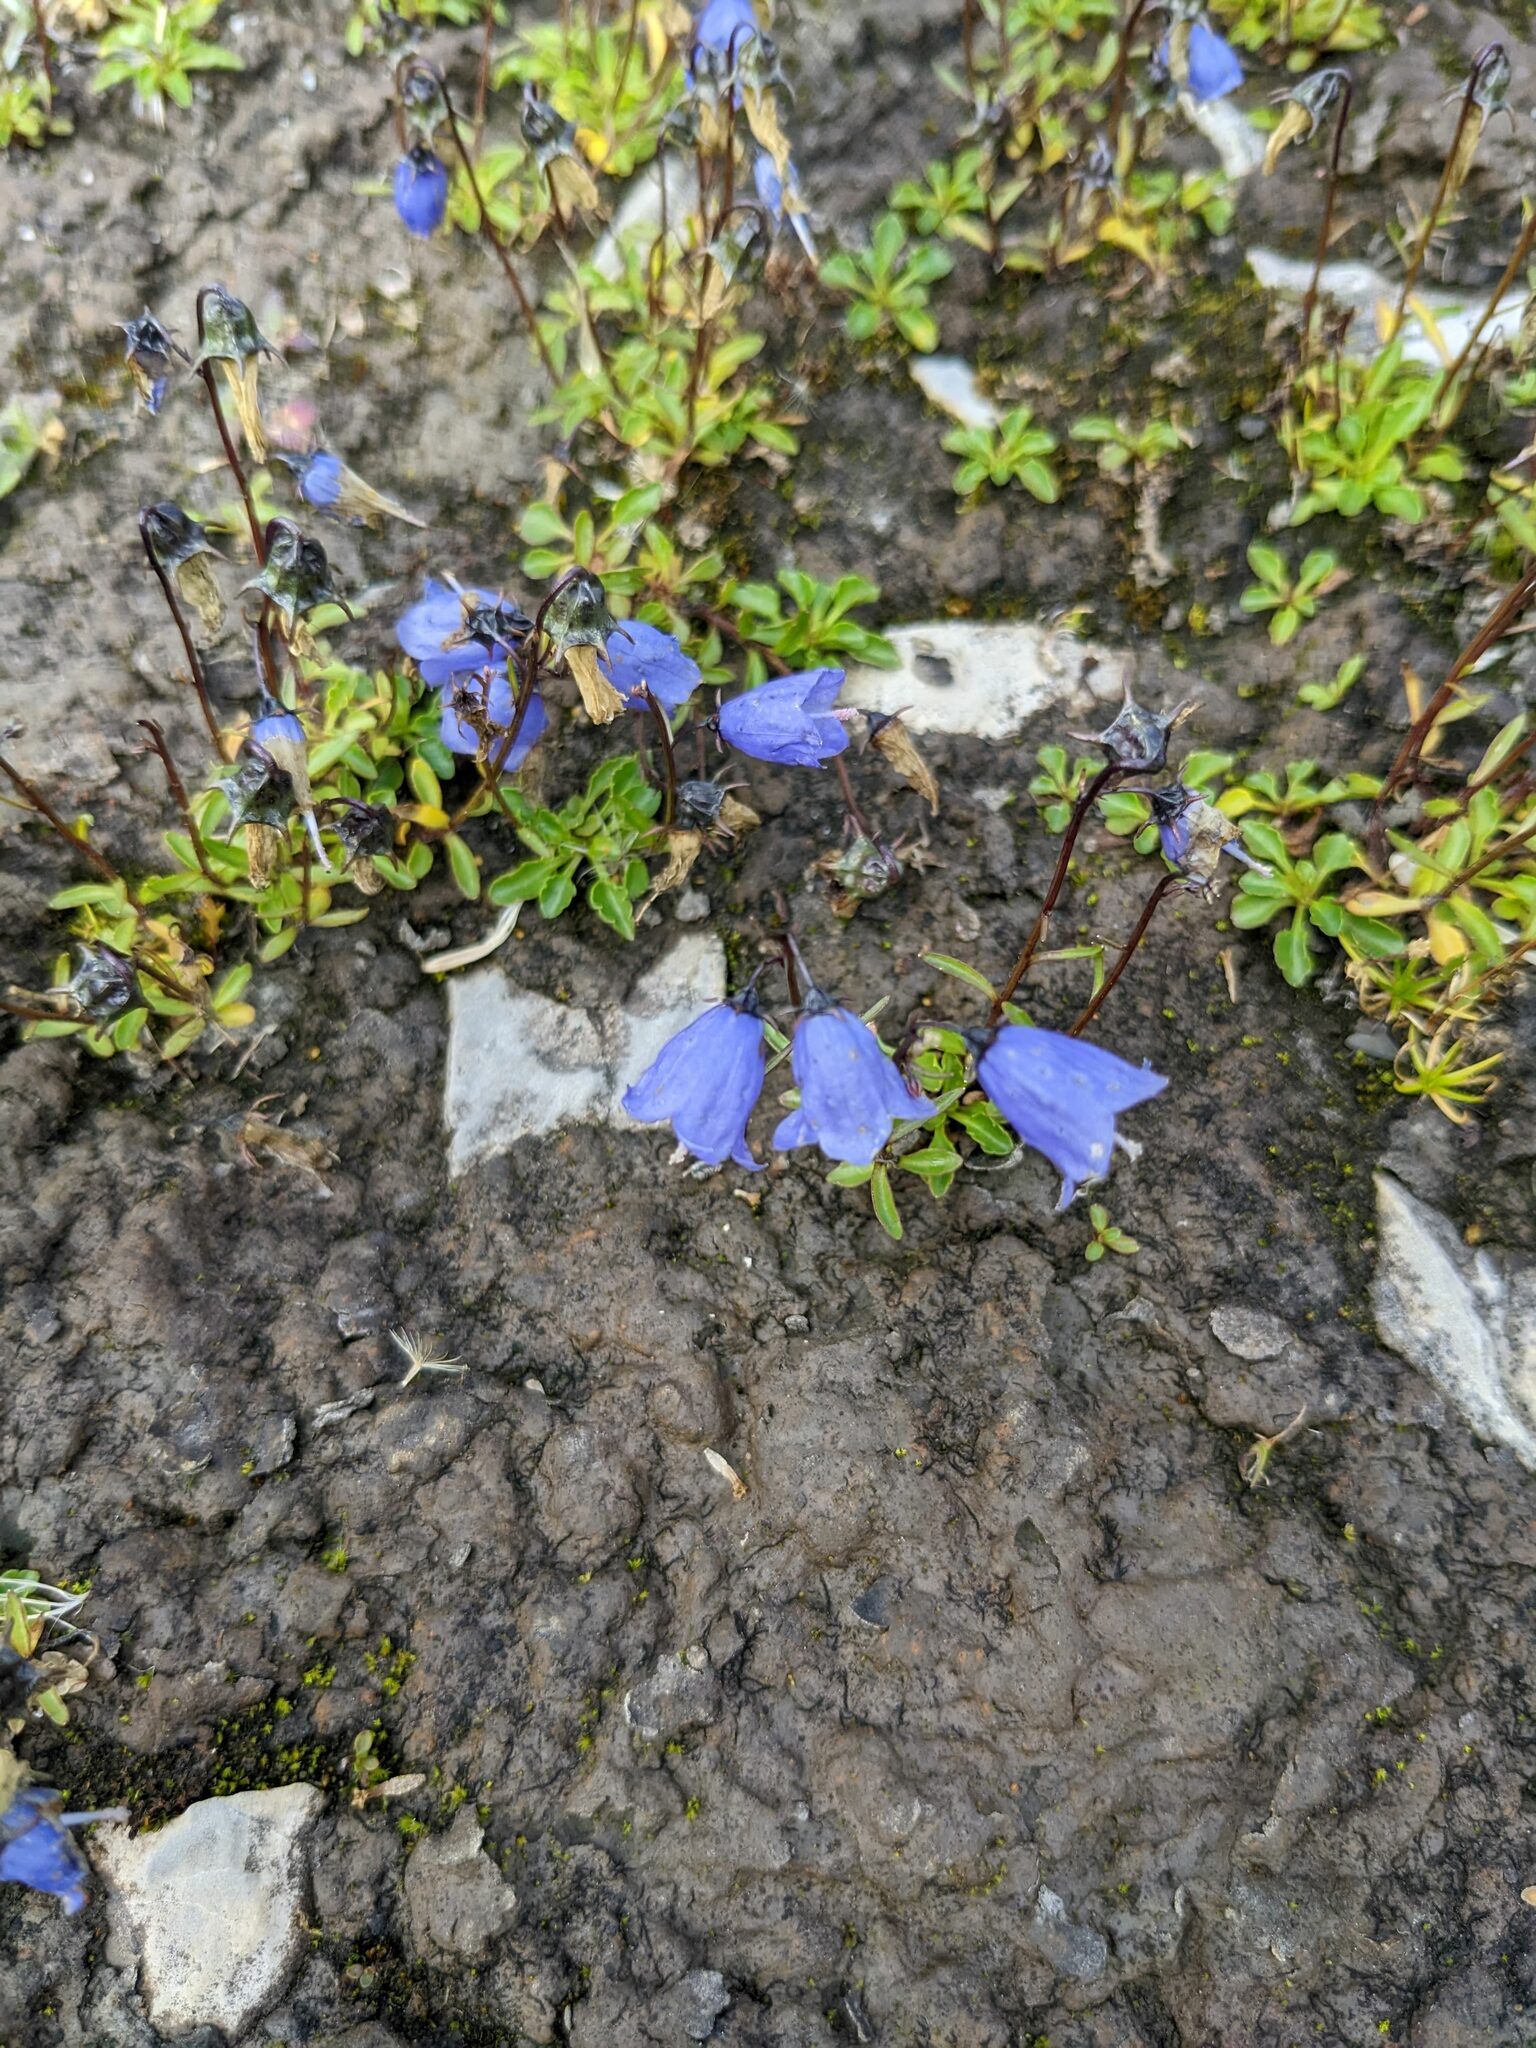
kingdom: Plantae
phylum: Tracheophyta
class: Magnoliopsida
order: Asterales
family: Campanulaceae
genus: Campanula
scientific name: Campanula cochleariifolia
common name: Fairies'-thimbles
